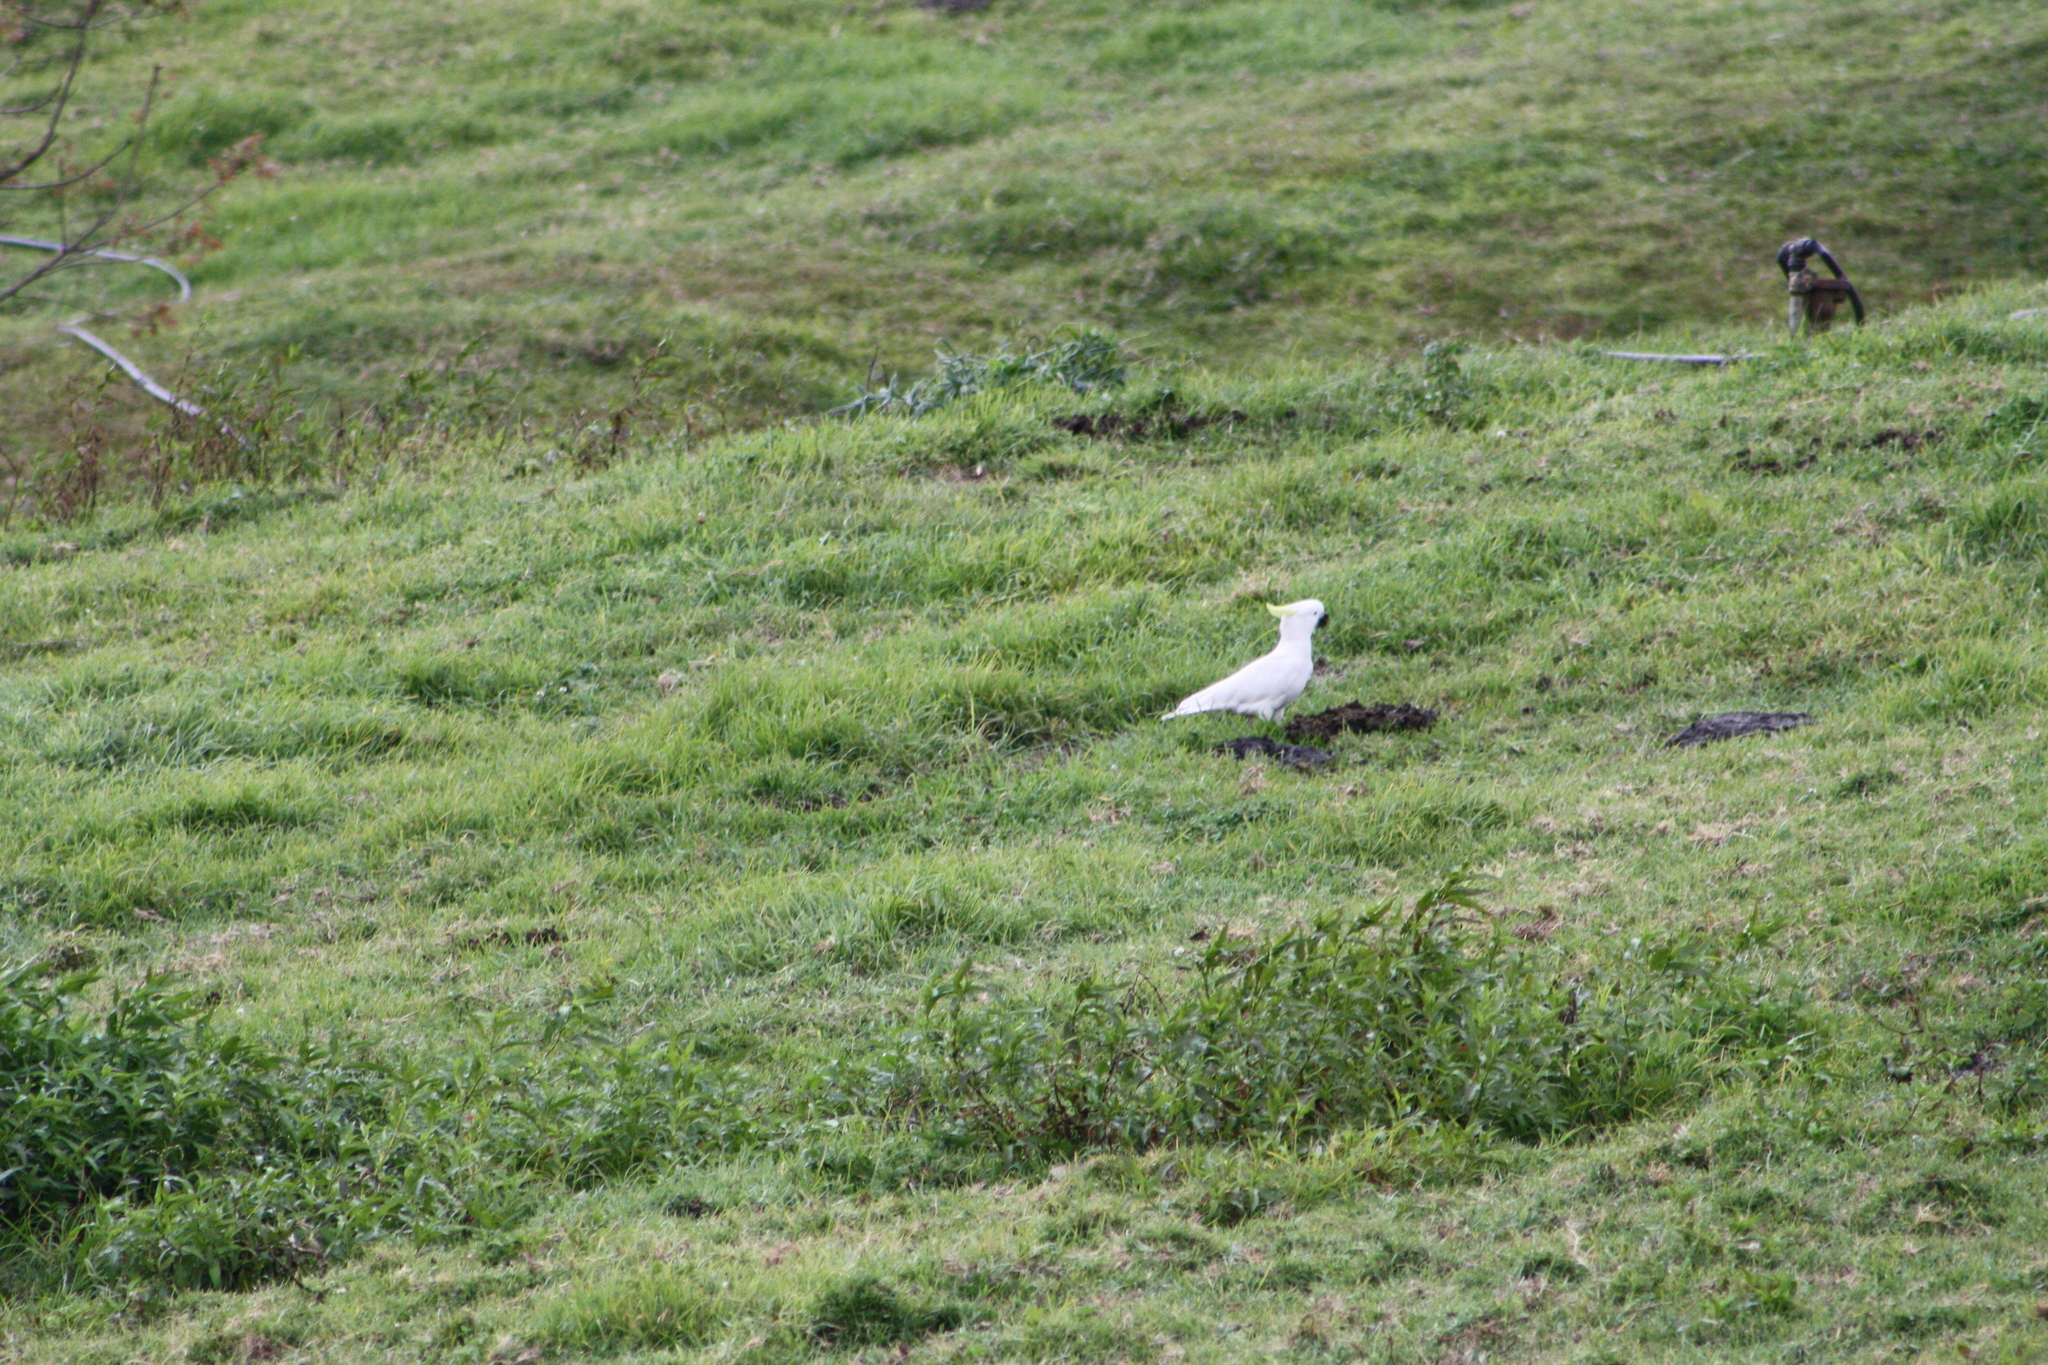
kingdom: Animalia
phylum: Chordata
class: Aves
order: Psittaciformes
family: Psittacidae
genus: Cacatua
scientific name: Cacatua galerita
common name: Sulphur-crested cockatoo
